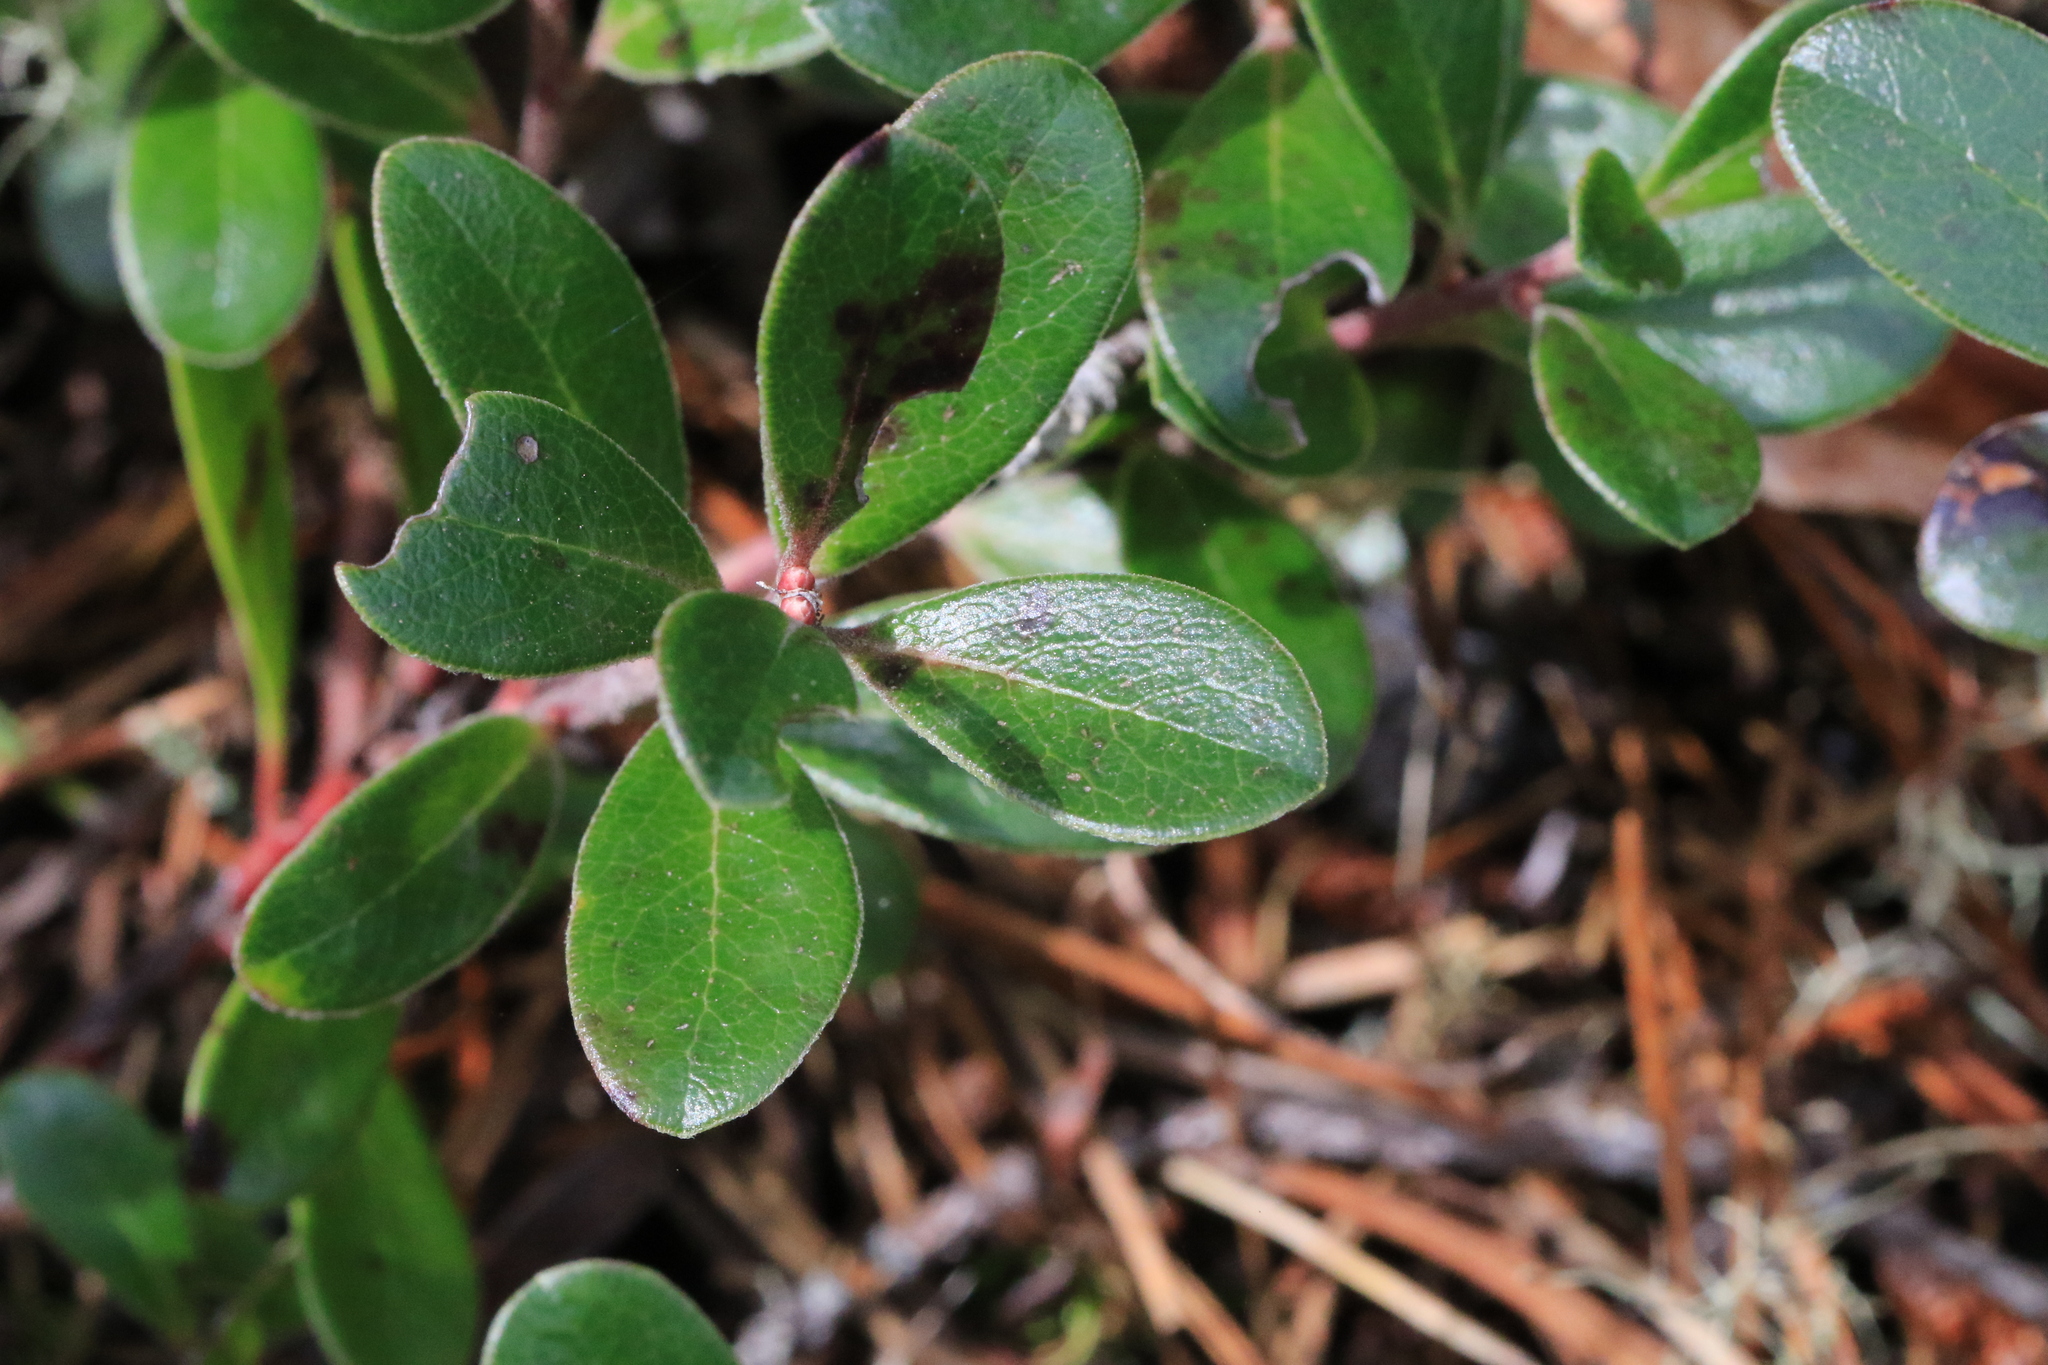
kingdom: Plantae
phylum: Tracheophyta
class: Magnoliopsida
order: Ericales
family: Ericaceae
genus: Arctostaphylos
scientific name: Arctostaphylos uva-ursi
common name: Bearberry
